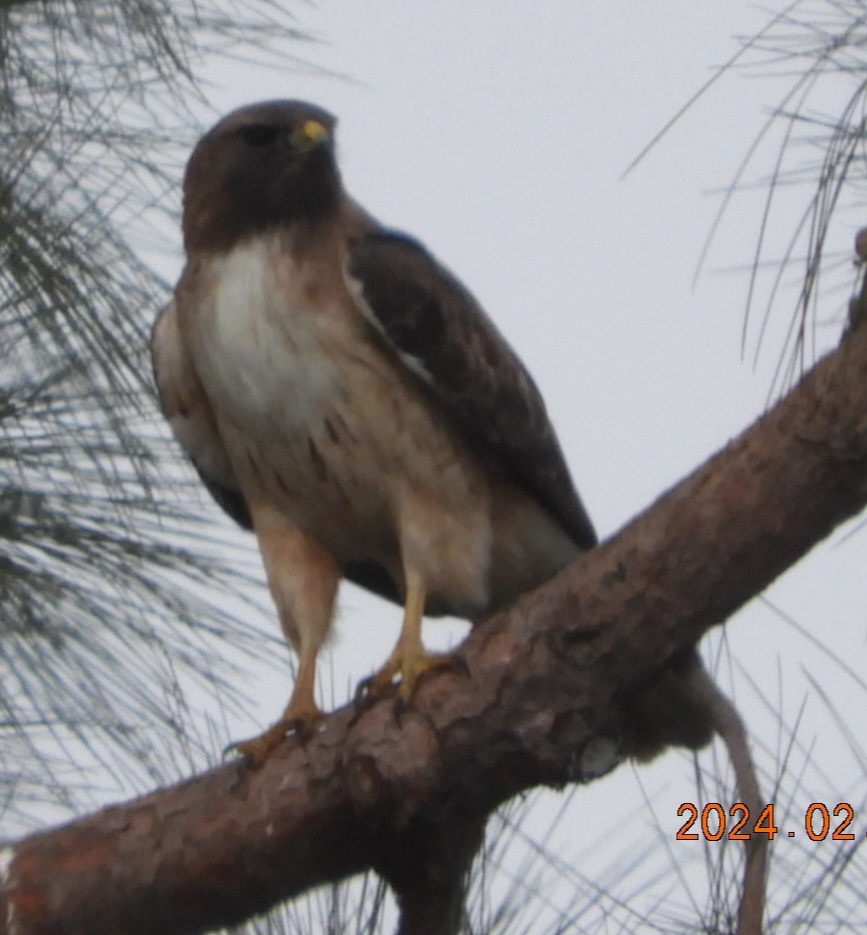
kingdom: Animalia
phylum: Chordata
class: Aves
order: Accipitriformes
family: Accipitridae
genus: Buteo
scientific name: Buteo jamaicensis
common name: Red-tailed hawk
